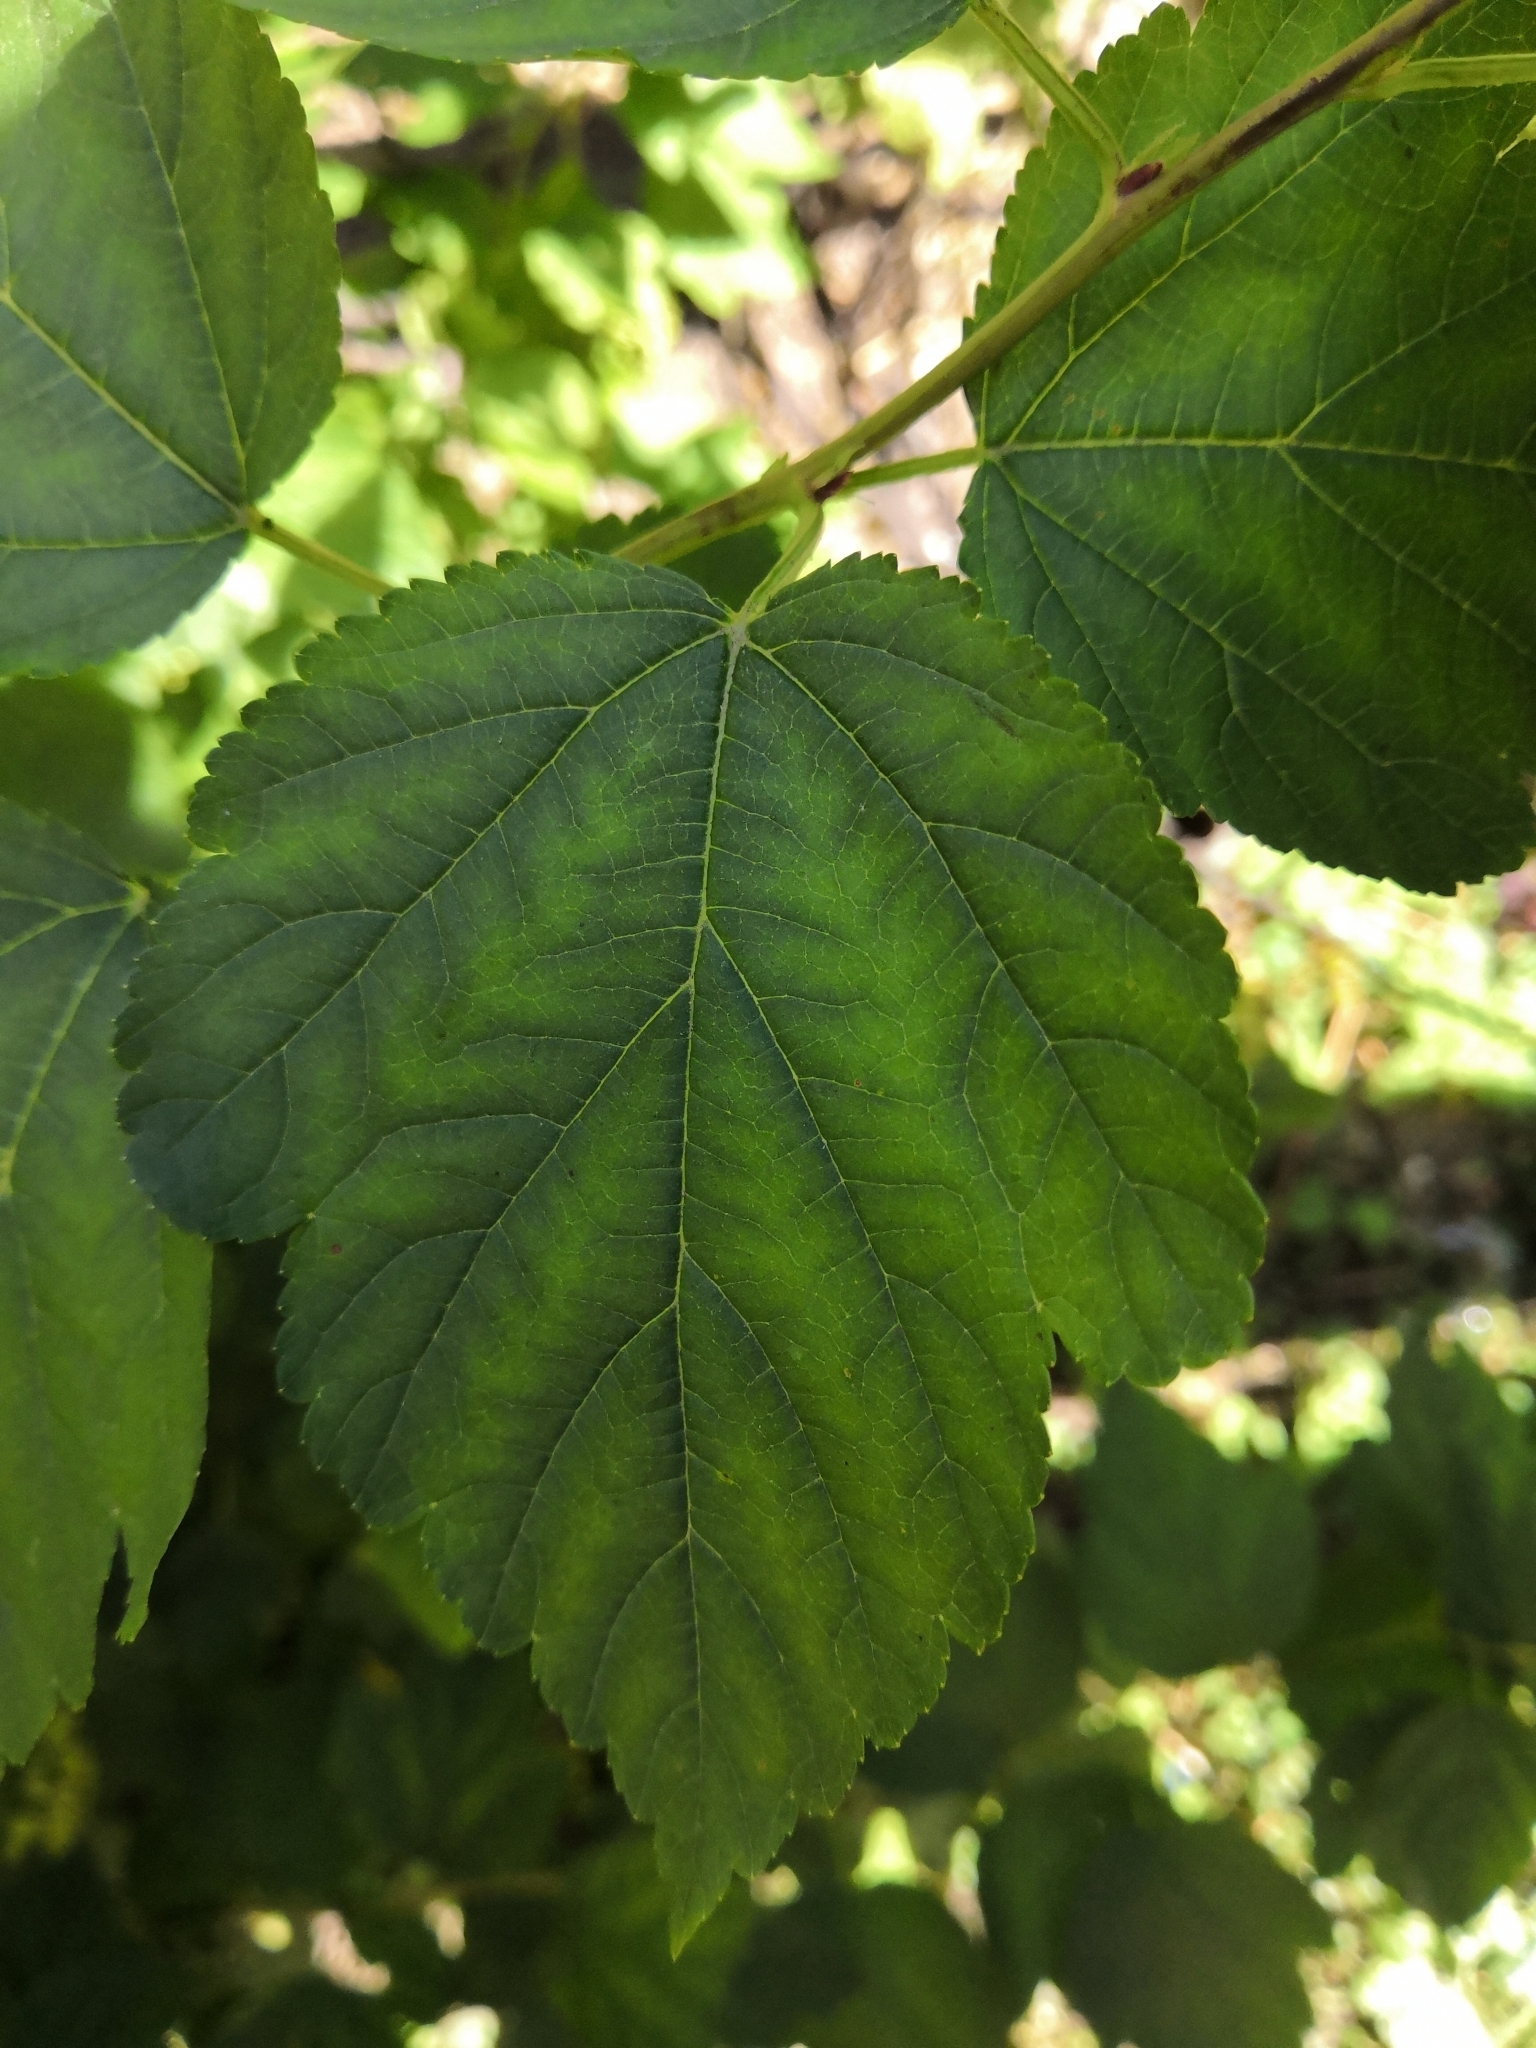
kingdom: Plantae
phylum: Tracheophyta
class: Magnoliopsida
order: Rosales
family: Rosaceae
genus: Physocarpus
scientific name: Physocarpus opulifolius
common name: Ninebark
